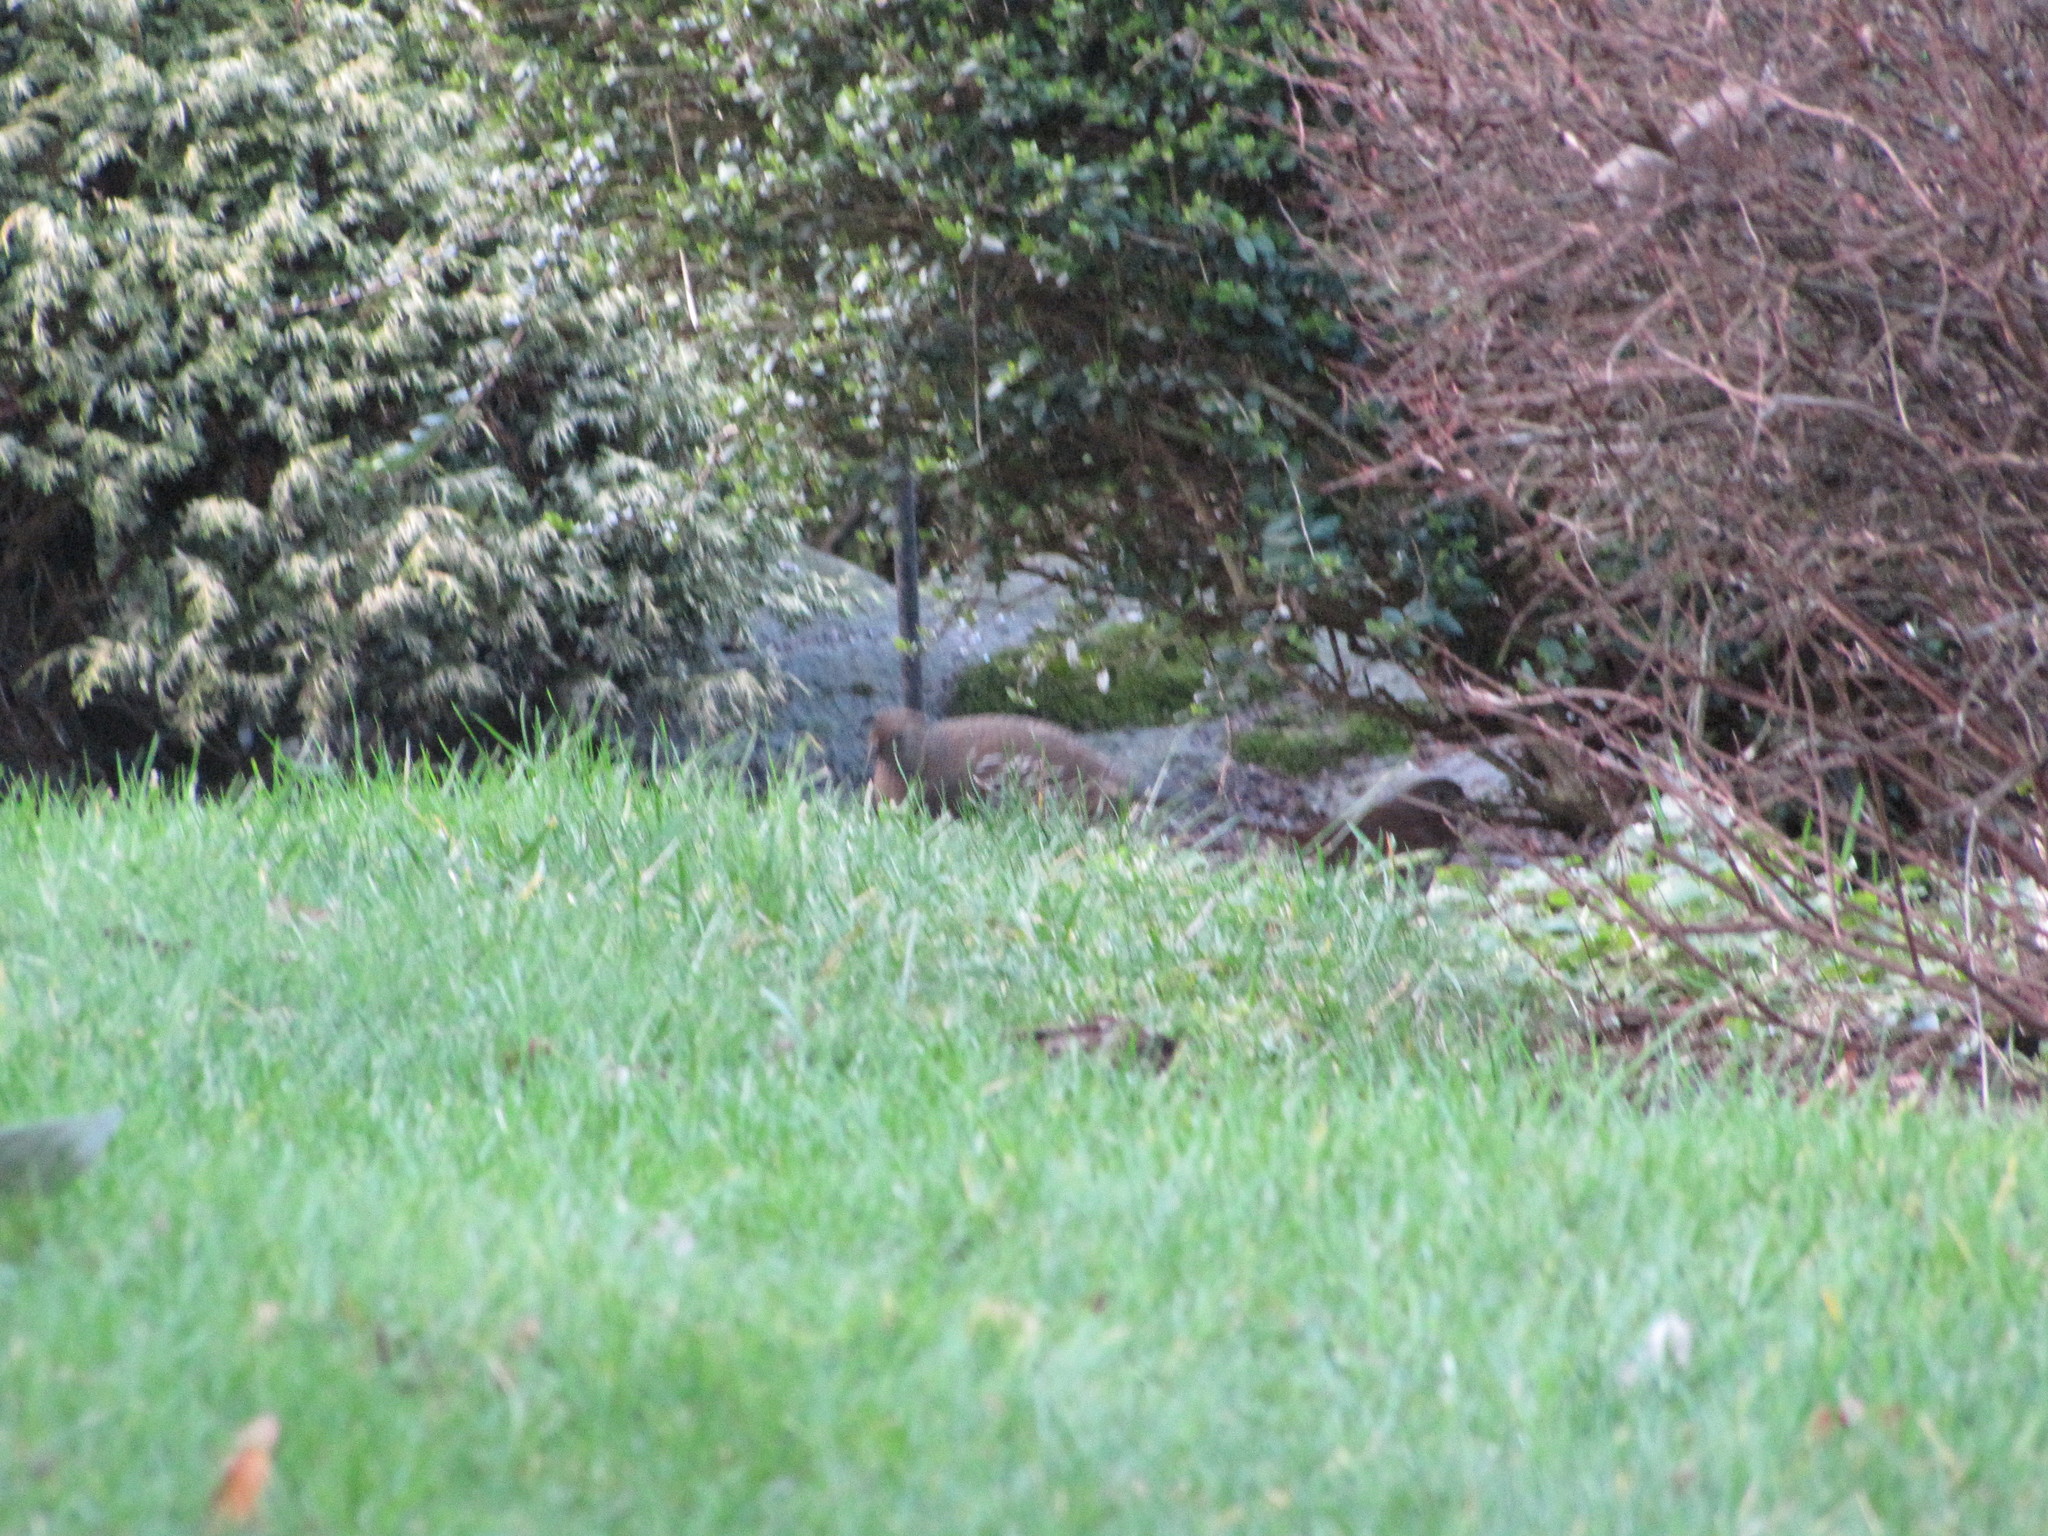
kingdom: Animalia
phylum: Chordata
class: Aves
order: Galliformes
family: Odontophoridae
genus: Callipepla
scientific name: Callipepla californica
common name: California quail
